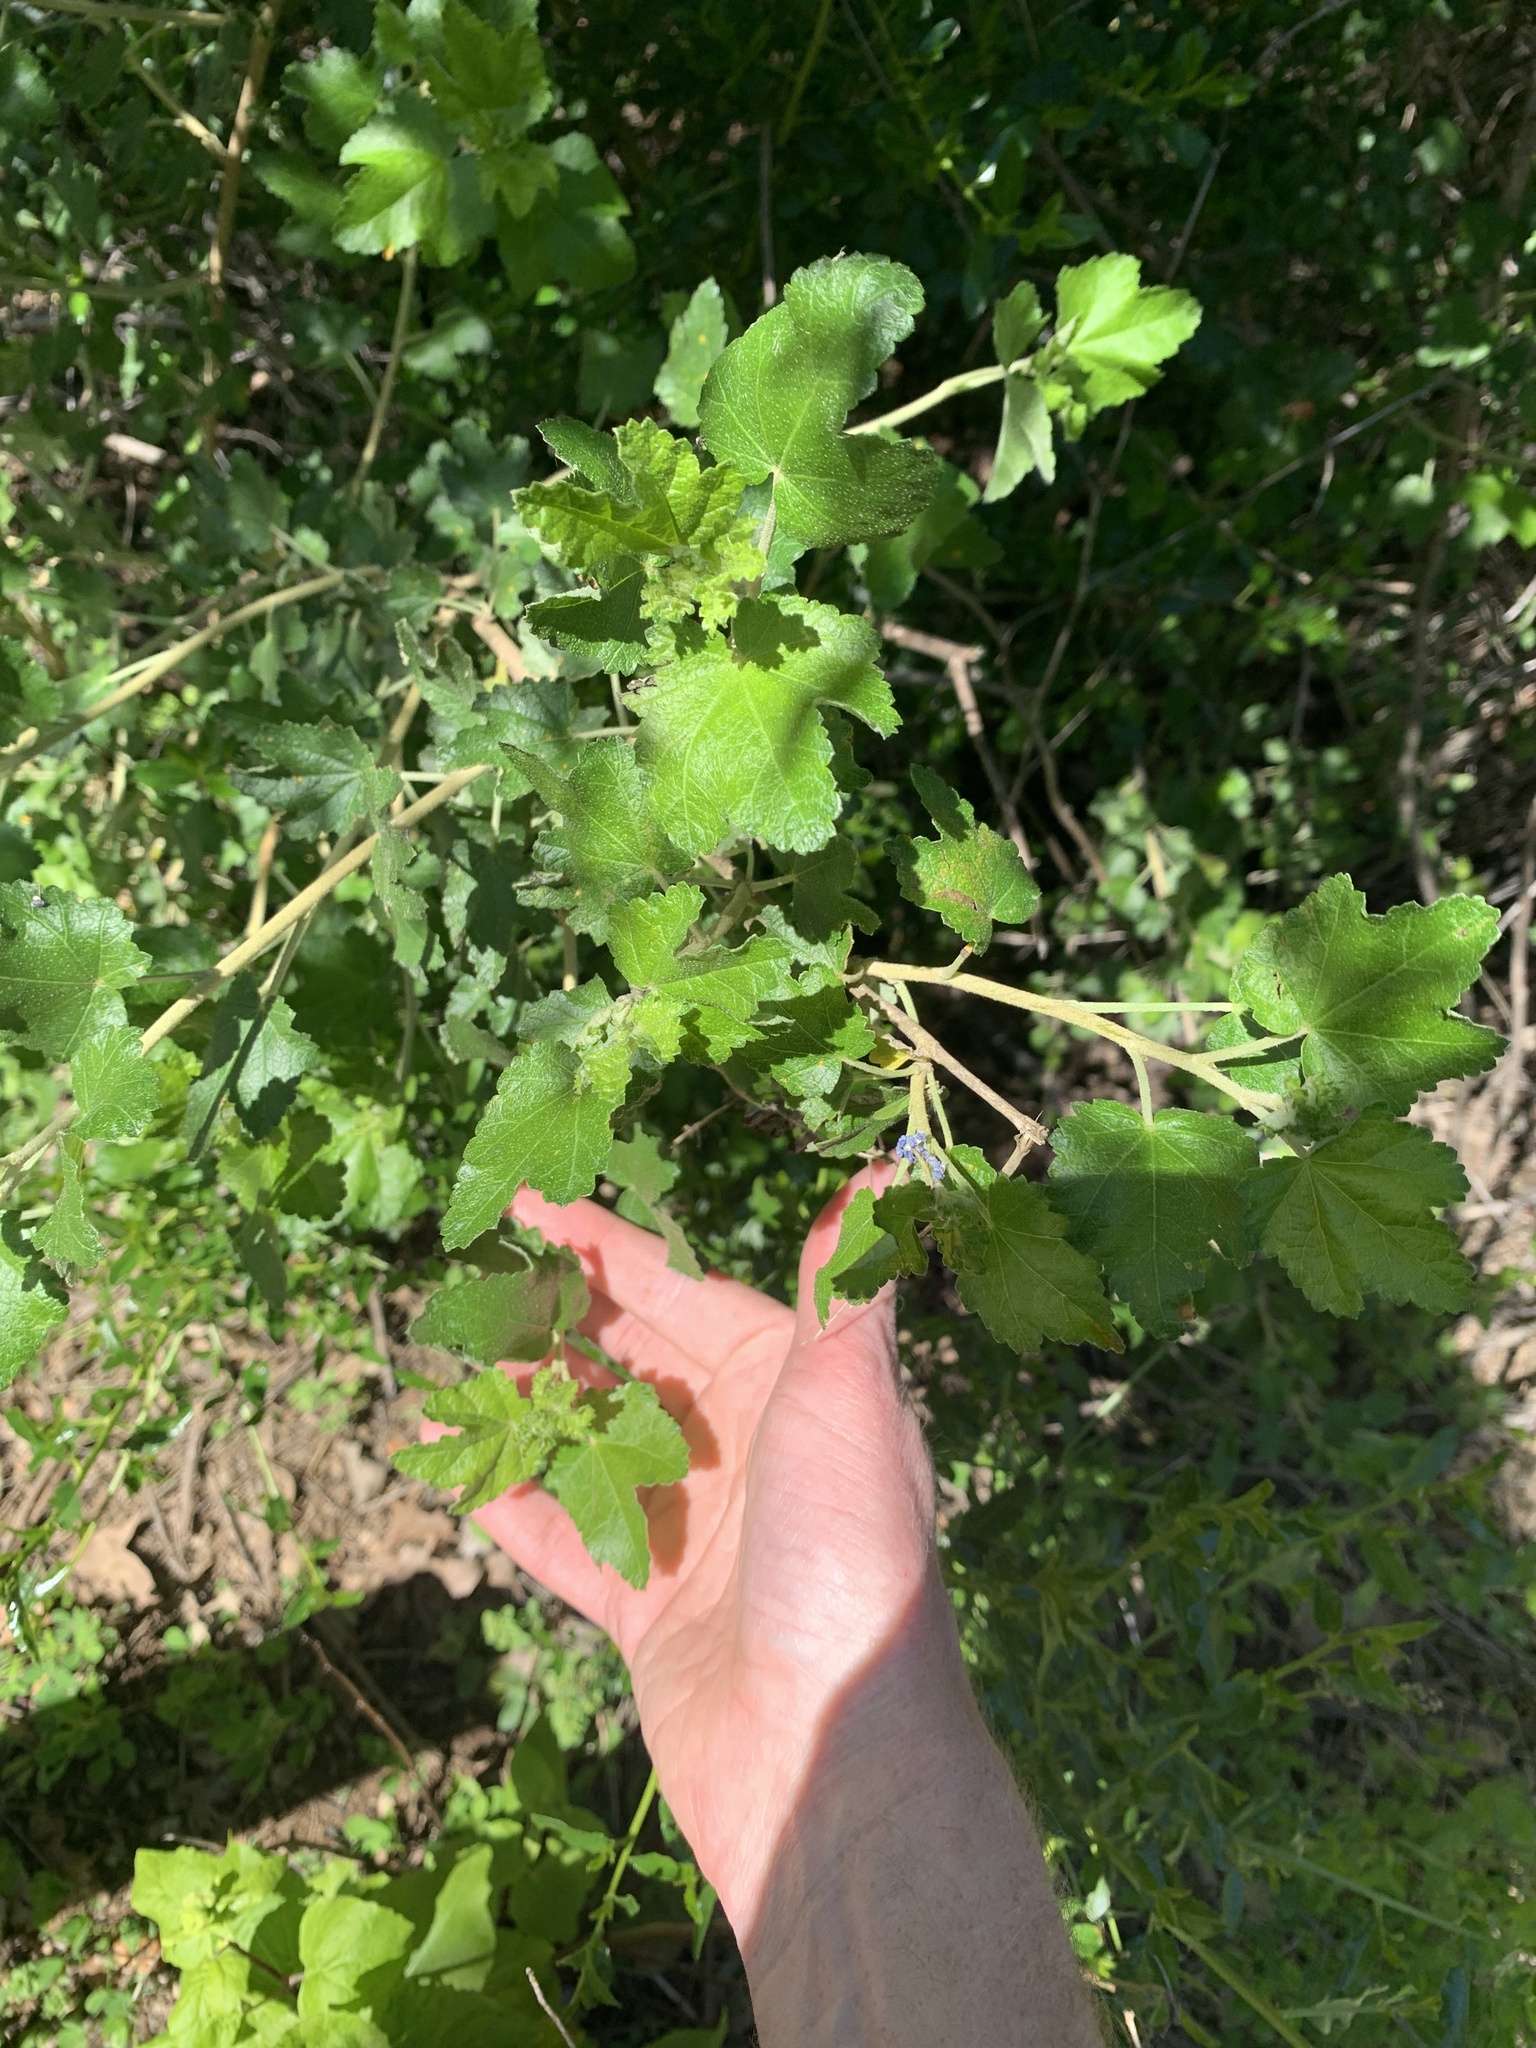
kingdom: Plantae
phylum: Tracheophyta
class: Magnoliopsida
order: Malvales
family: Malvaceae
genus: Malacothamnus
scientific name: Malacothamnus fasciculatus
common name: Sant cruz island bush-mallow
